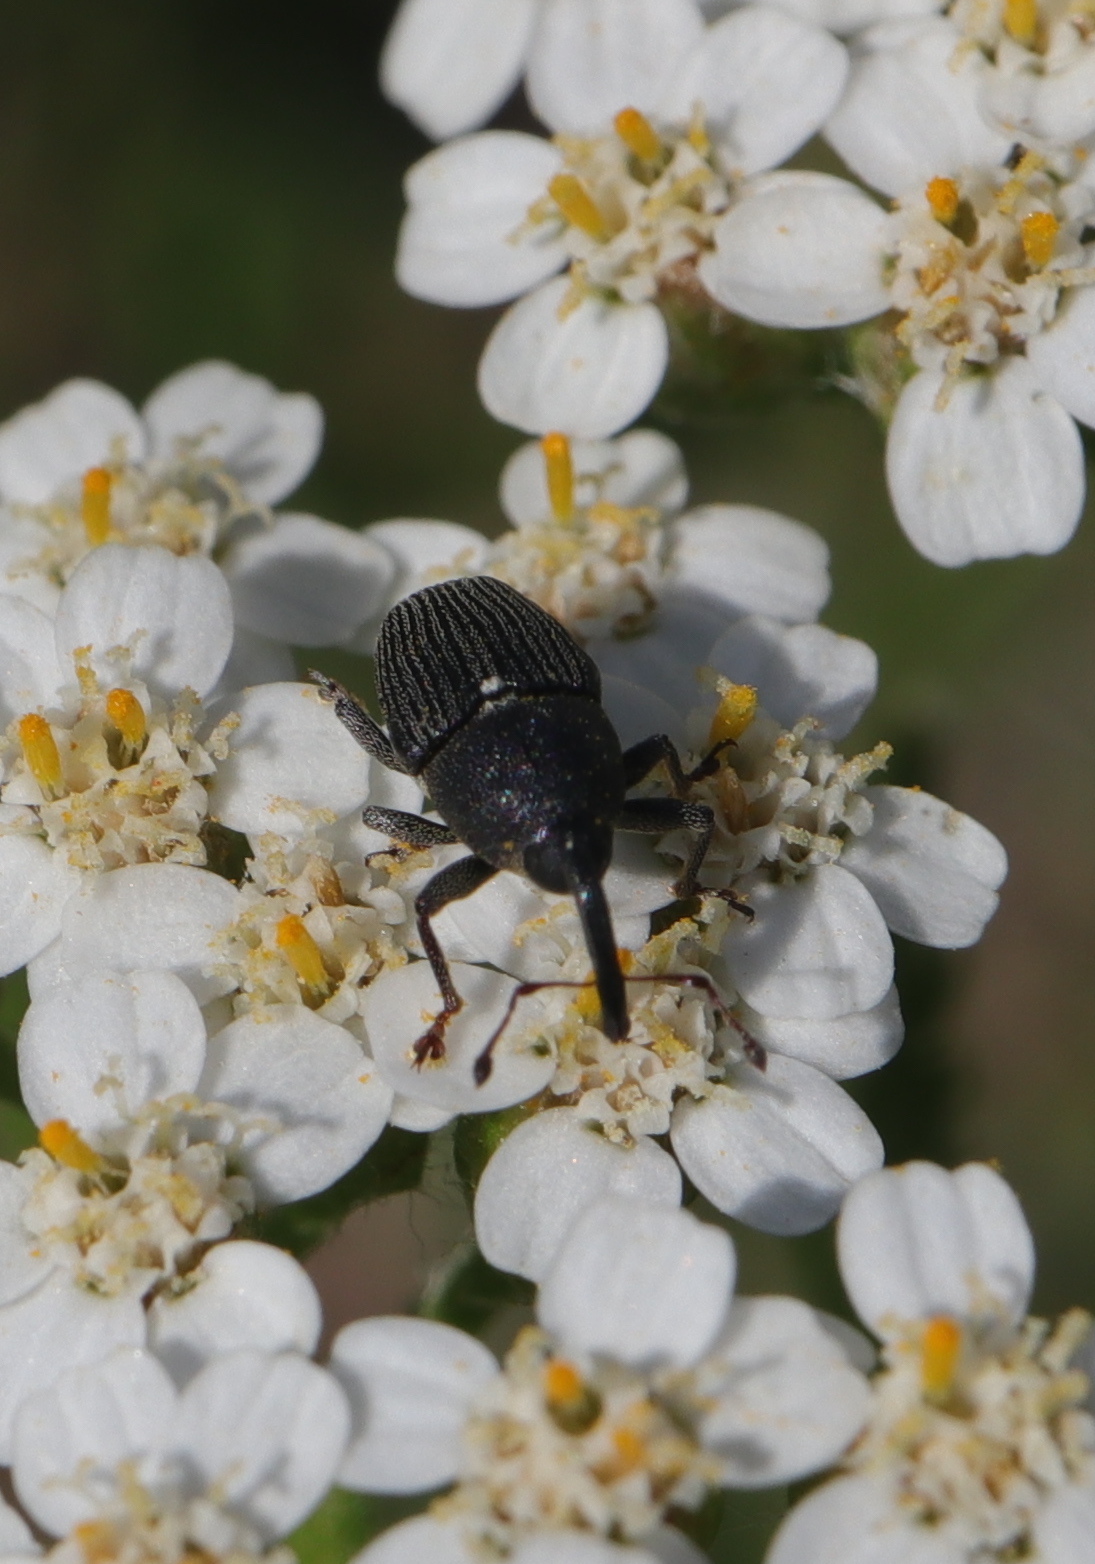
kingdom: Animalia
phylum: Arthropoda
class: Insecta
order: Coleoptera
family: Curculionidae
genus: Odontocorynus
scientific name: Odontocorynus salebrosus
